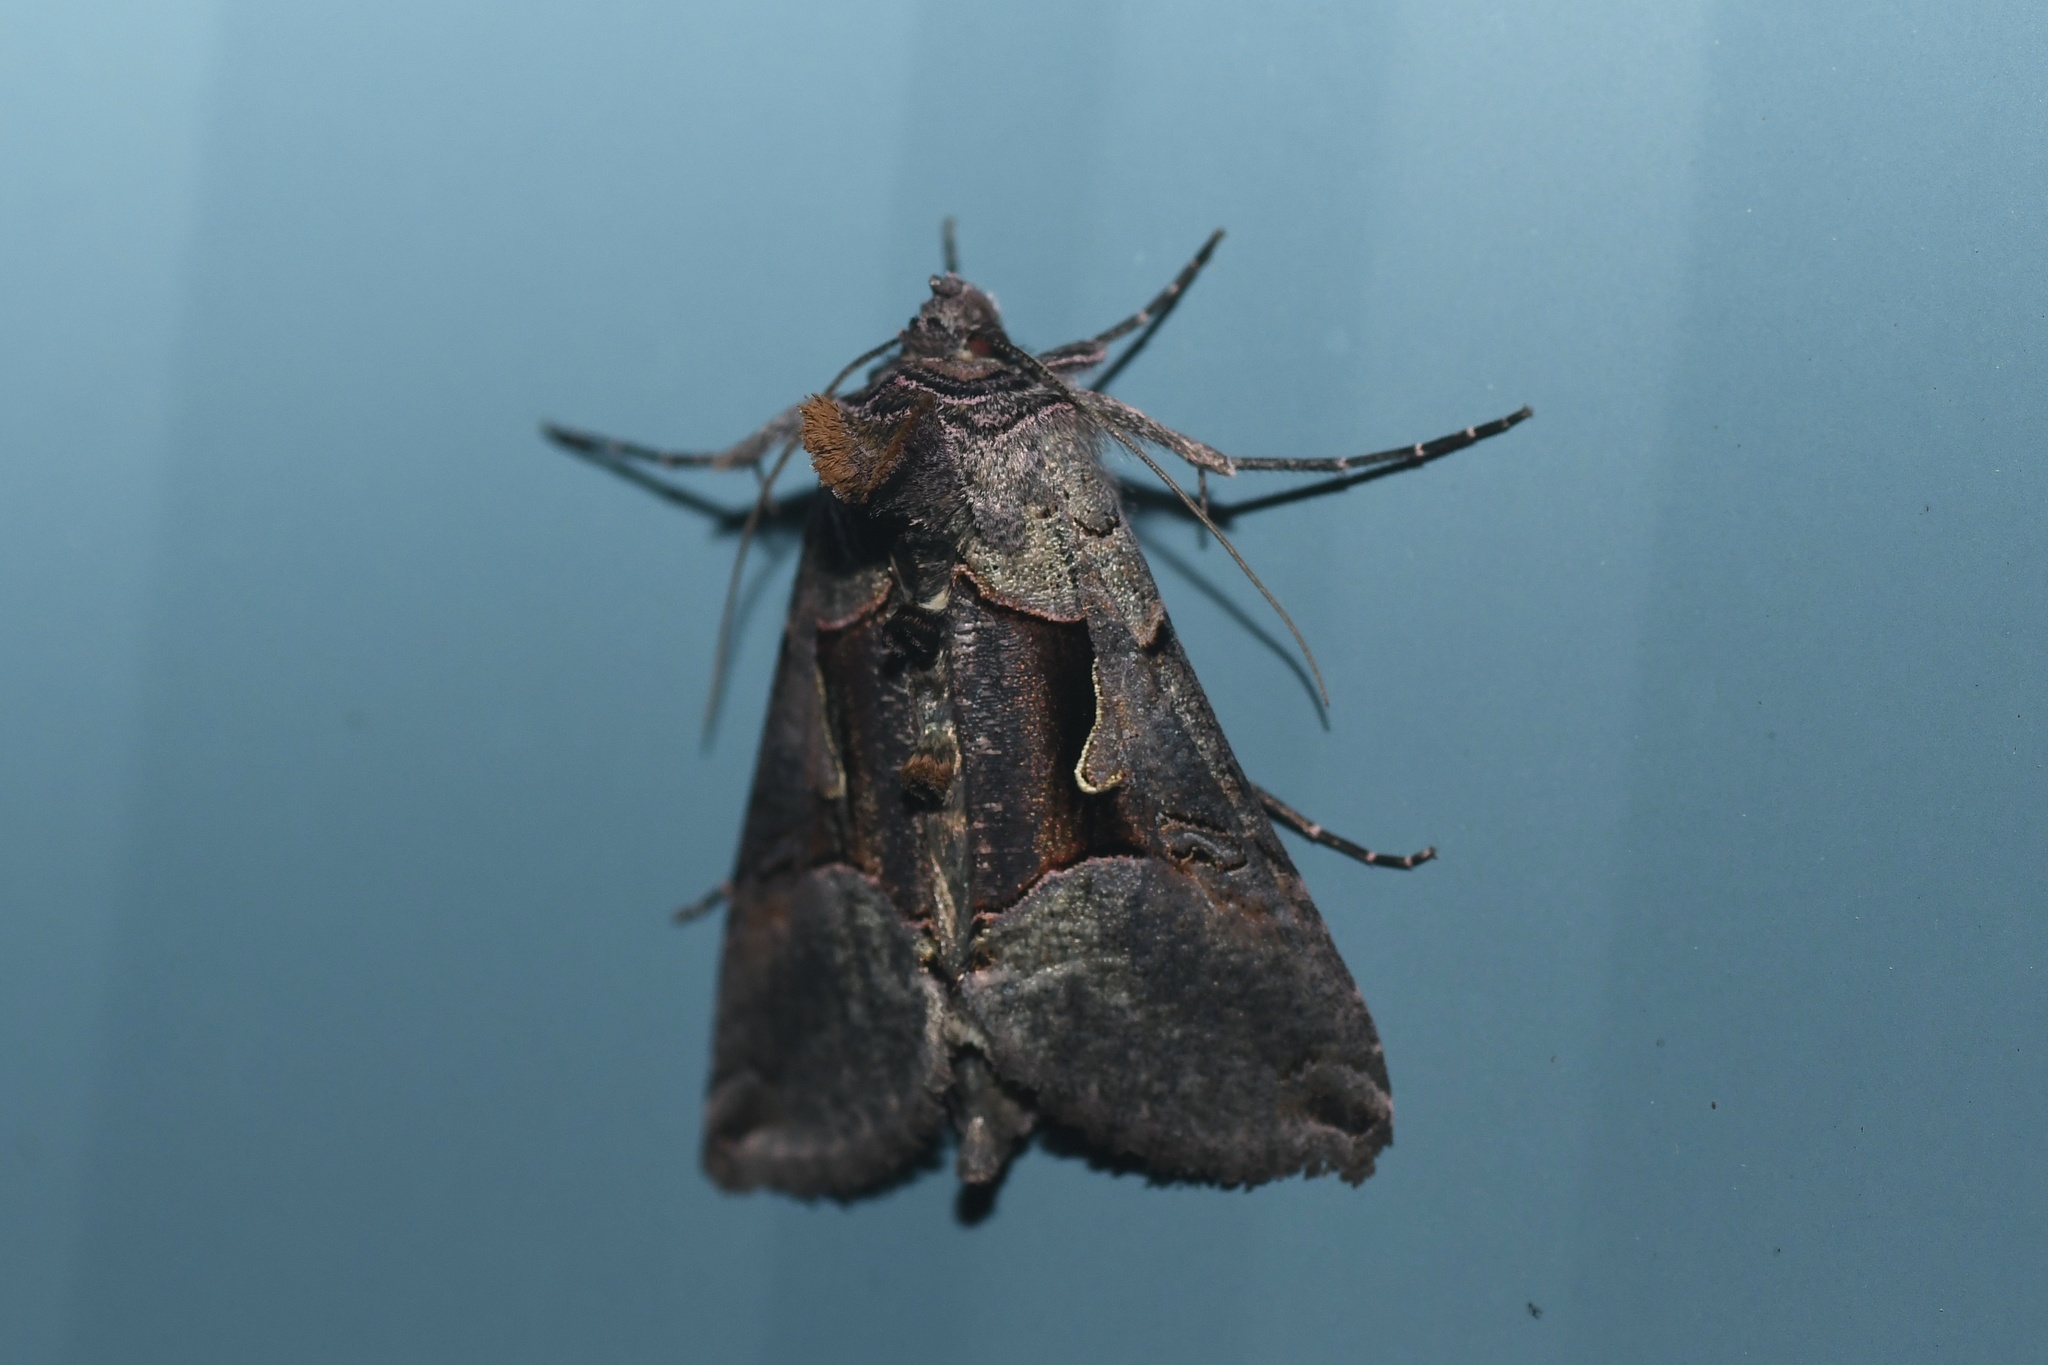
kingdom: Animalia
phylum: Arthropoda
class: Insecta
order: Lepidoptera
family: Noctuidae
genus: Autographa
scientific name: Autographa ampla
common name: Large looper moth
